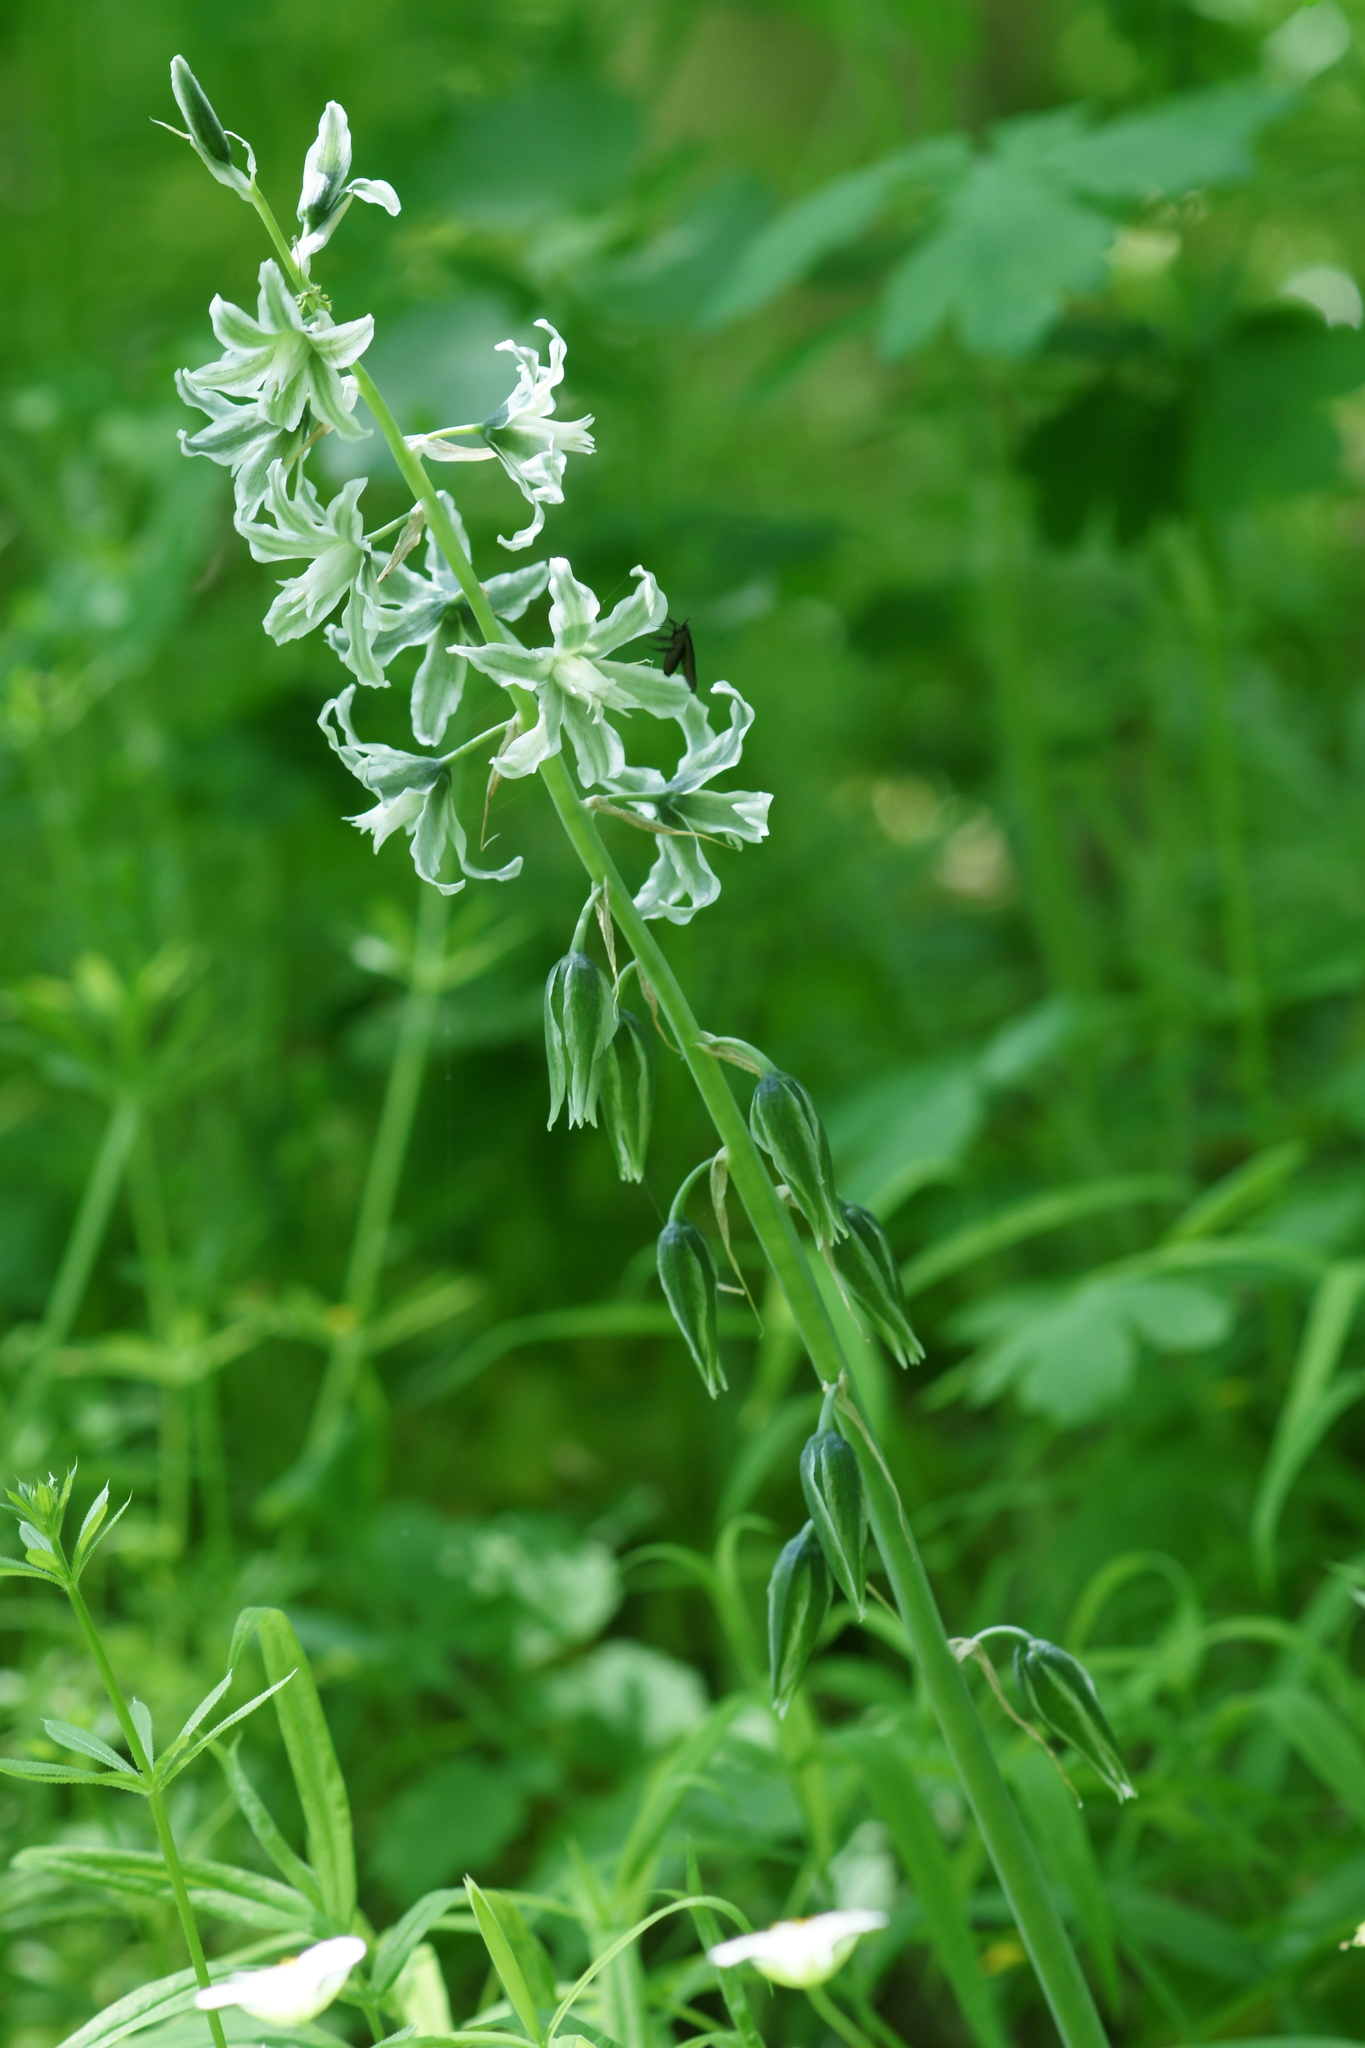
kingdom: Plantae
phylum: Tracheophyta
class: Liliopsida
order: Asparagales
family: Asparagaceae
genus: Ornithogalum
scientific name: Ornithogalum boucheanum
